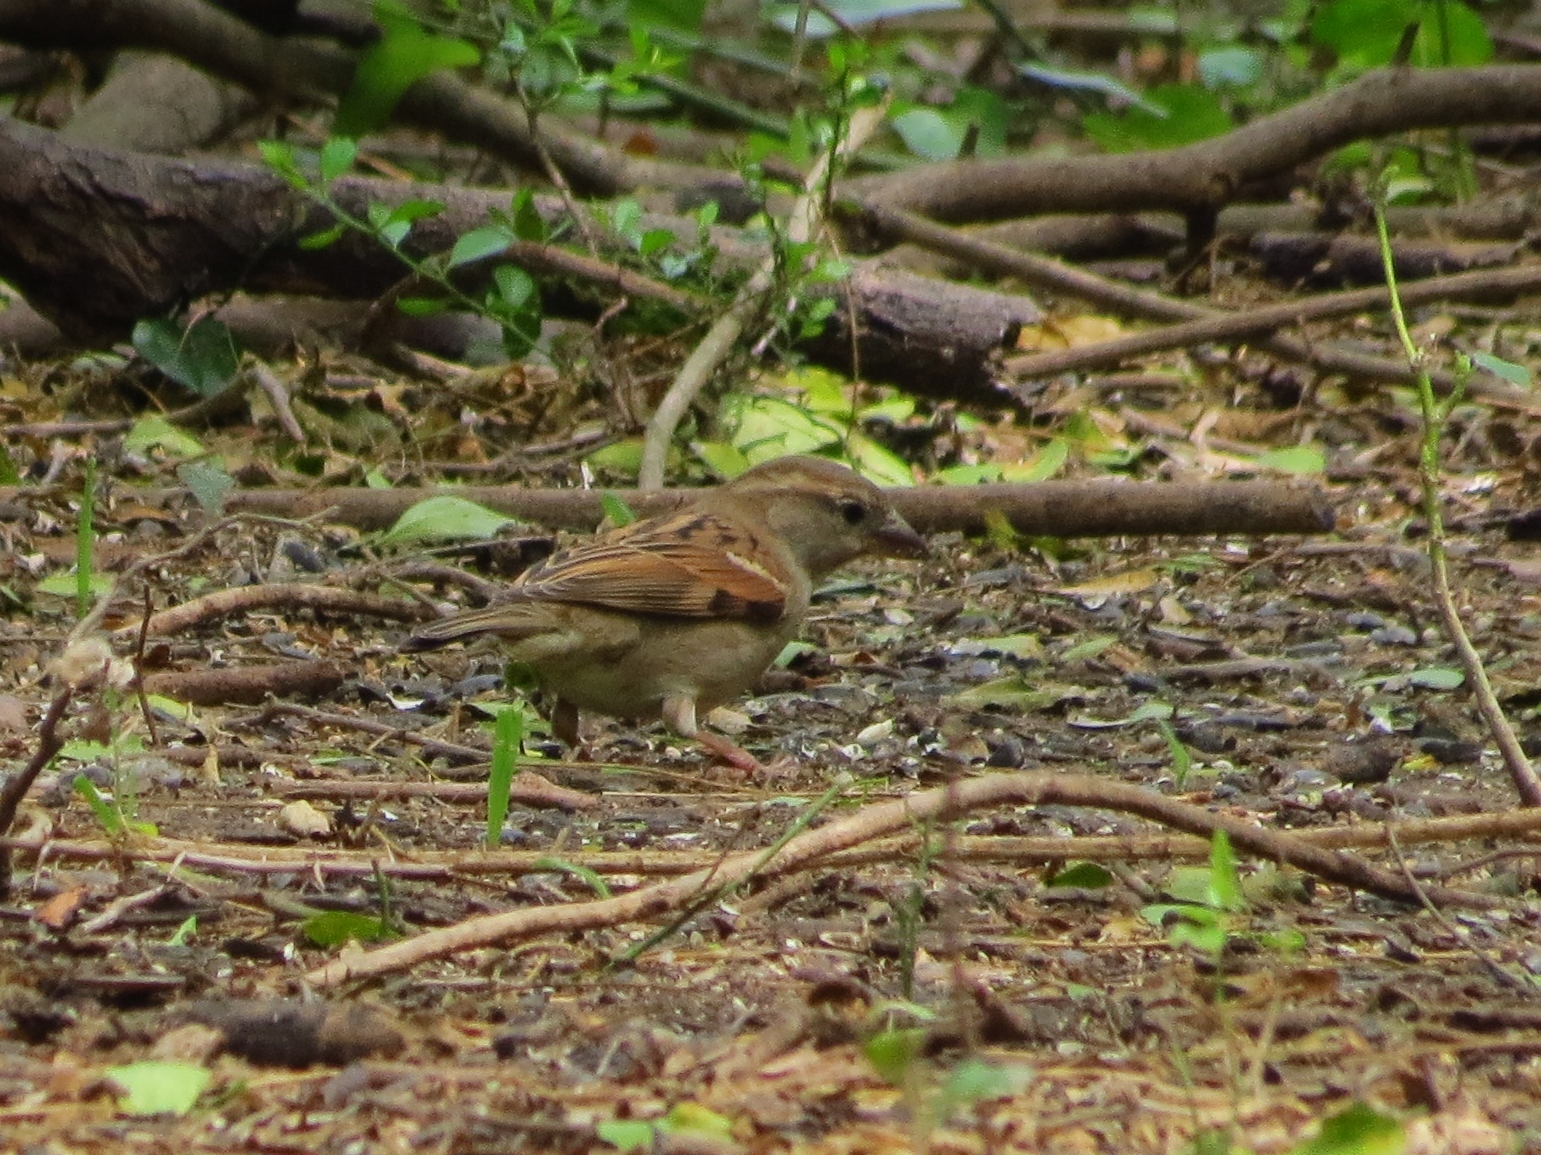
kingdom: Animalia
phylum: Chordata
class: Aves
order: Passeriformes
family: Passeridae
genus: Passer
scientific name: Passer domesticus
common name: House sparrow
